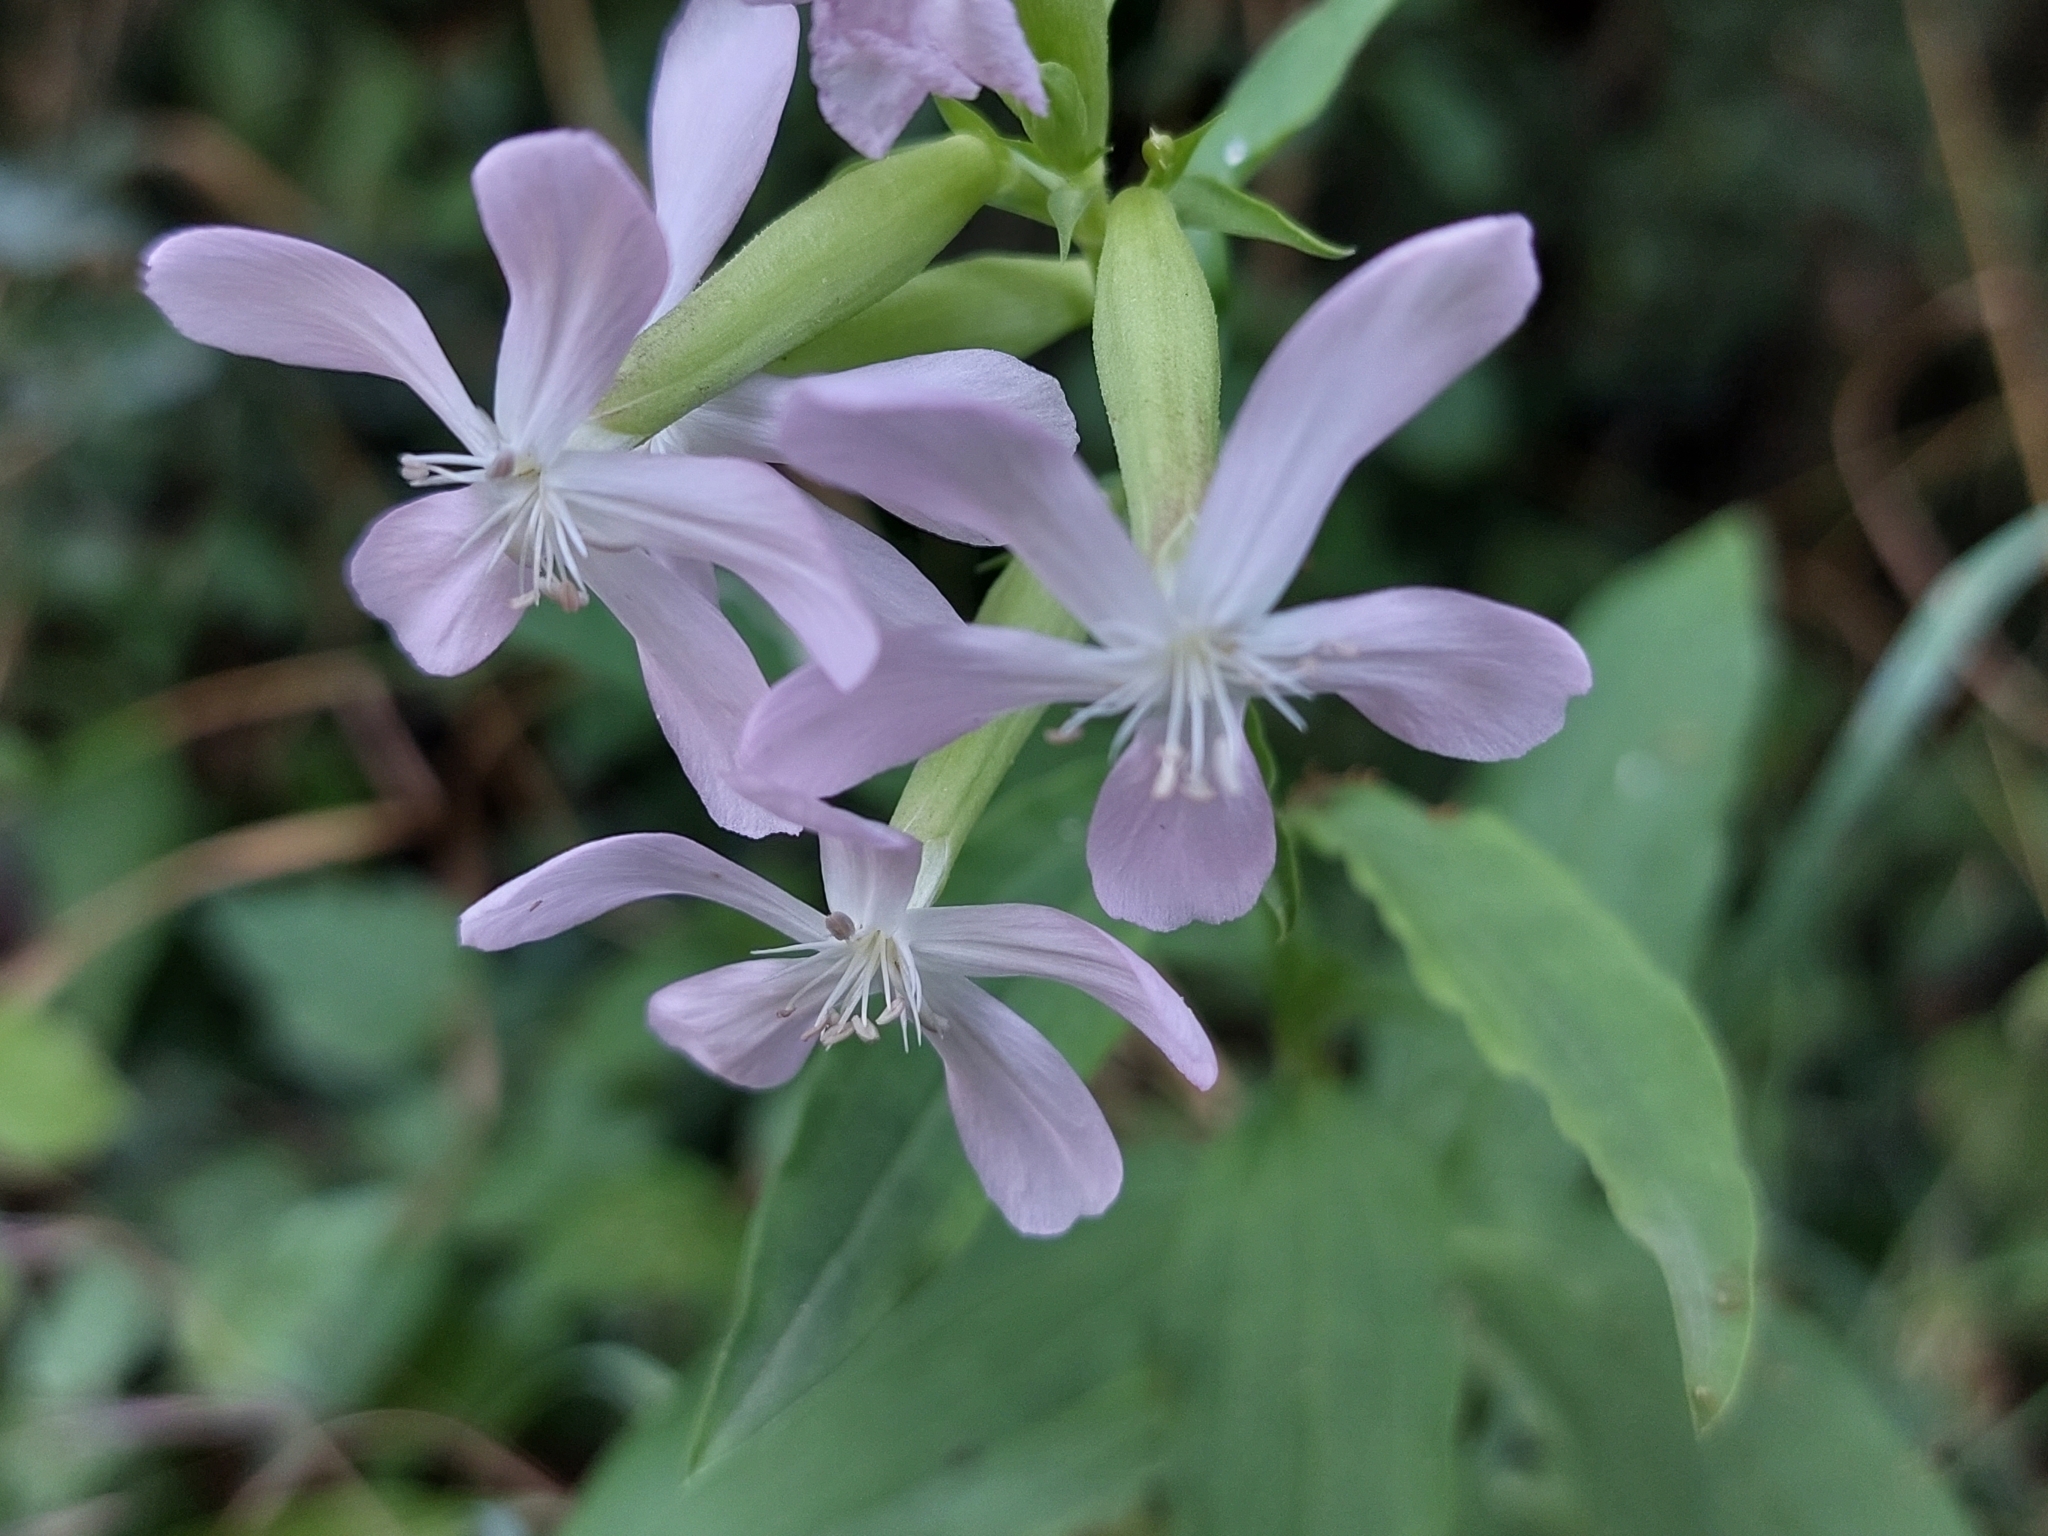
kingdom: Plantae
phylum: Tracheophyta
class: Magnoliopsida
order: Caryophyllales
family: Caryophyllaceae
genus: Saponaria
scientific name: Saponaria officinalis
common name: Soapwort
